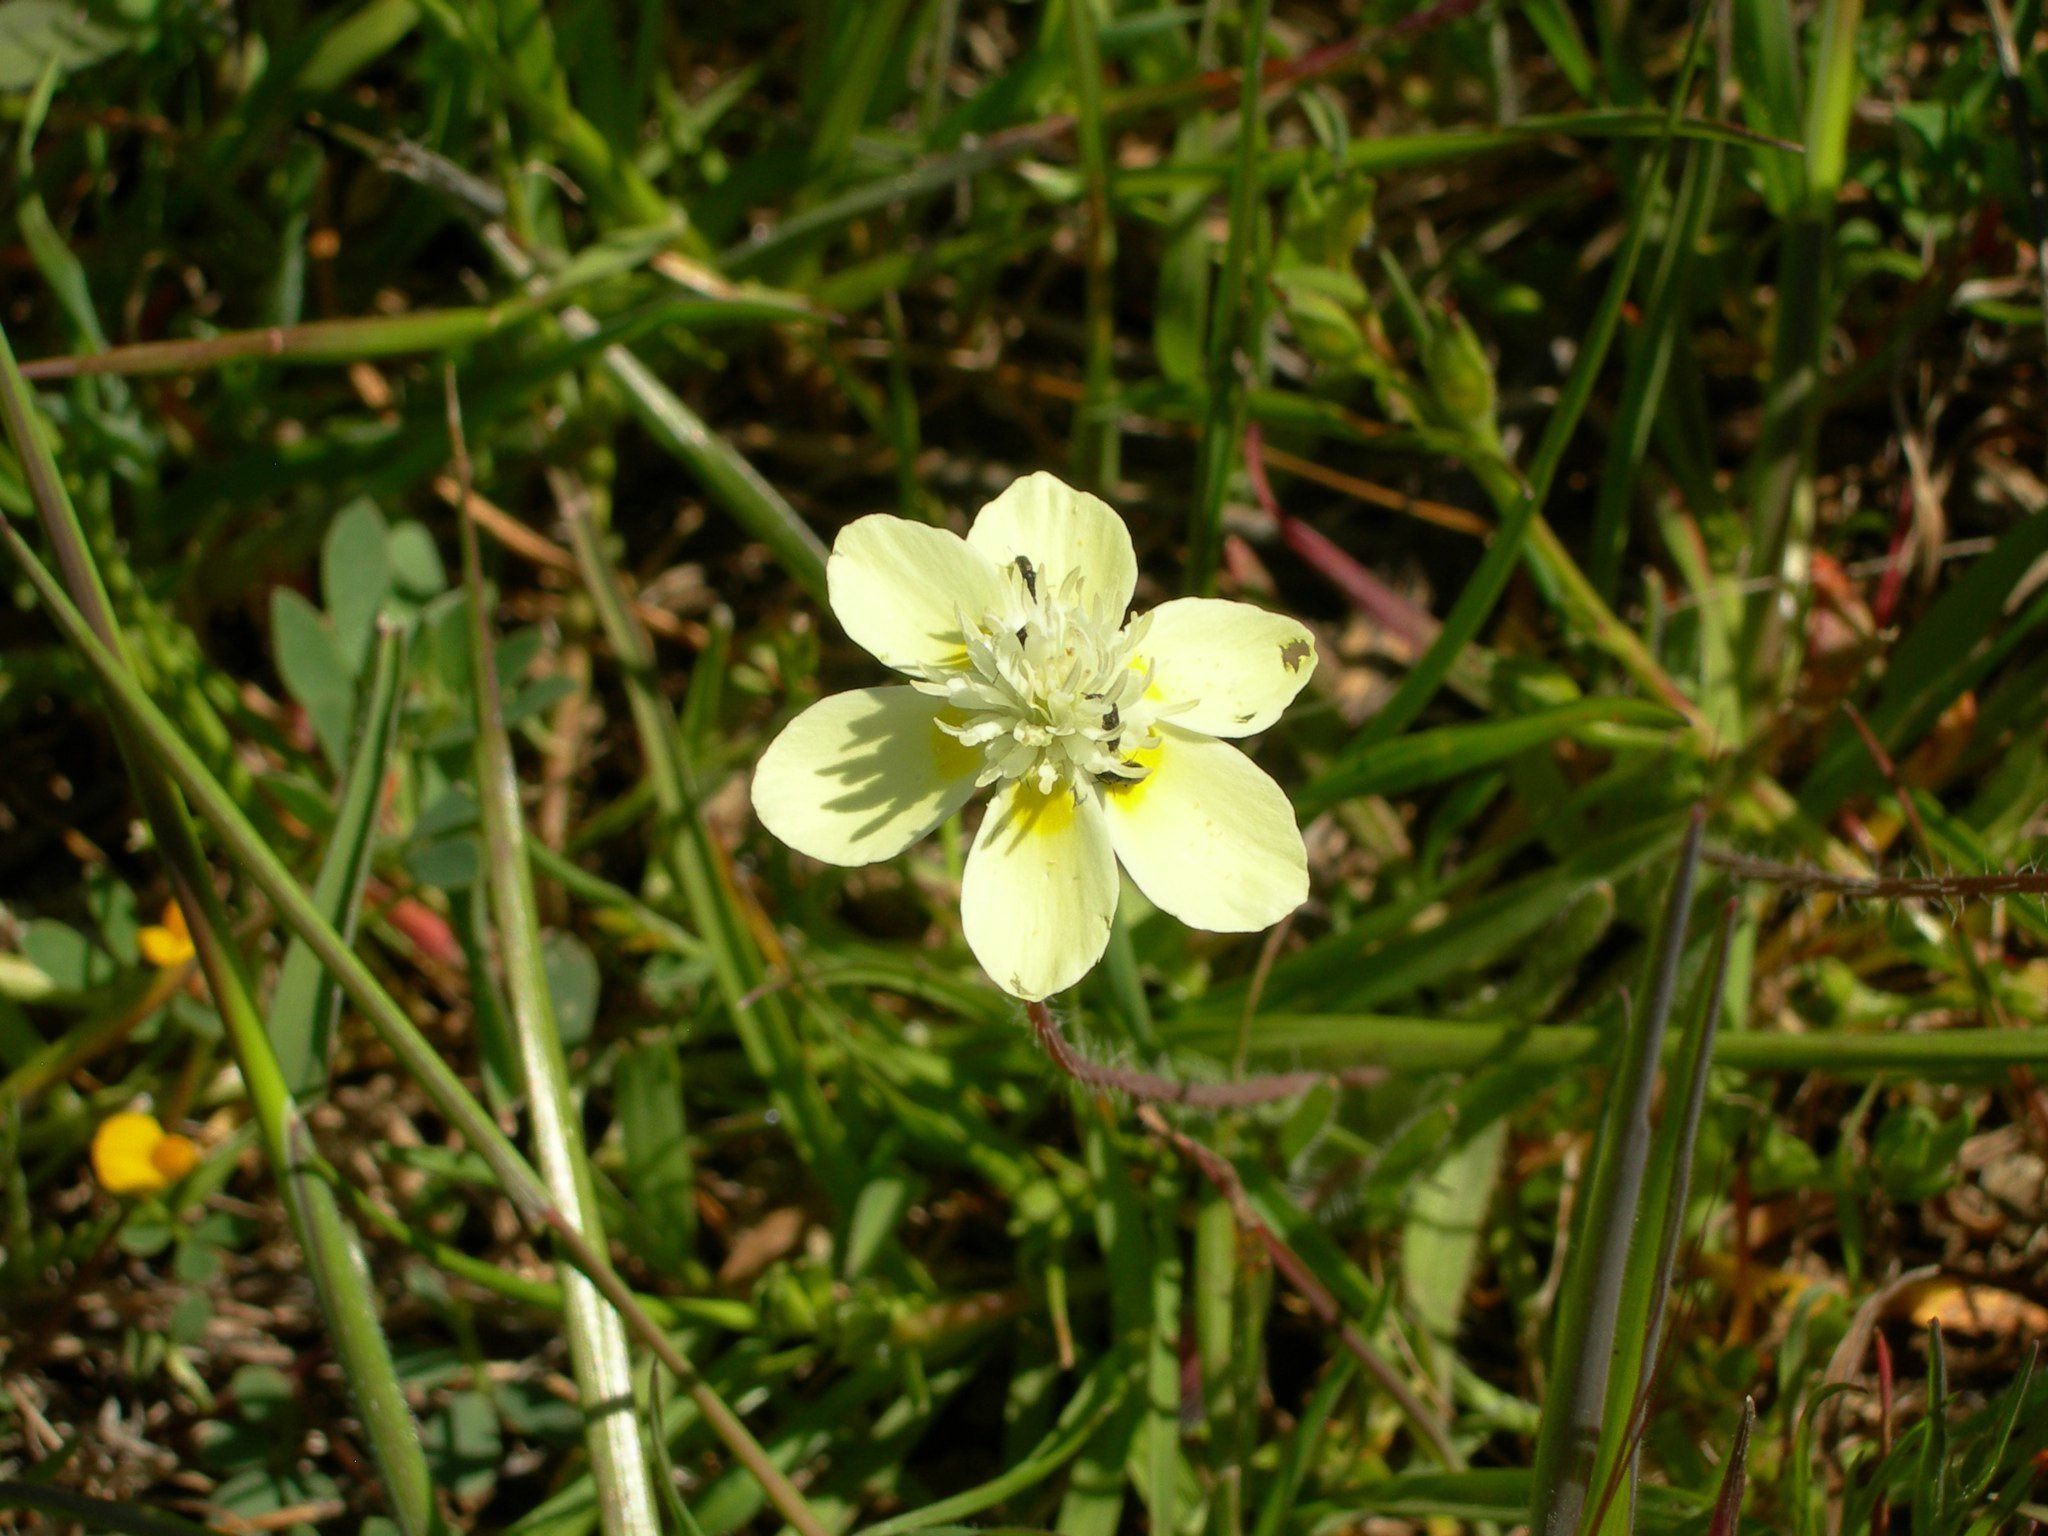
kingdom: Plantae
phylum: Tracheophyta
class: Magnoliopsida
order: Ranunculales
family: Papaveraceae
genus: Platystemon
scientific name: Platystemon californicus
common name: Cream-cups
